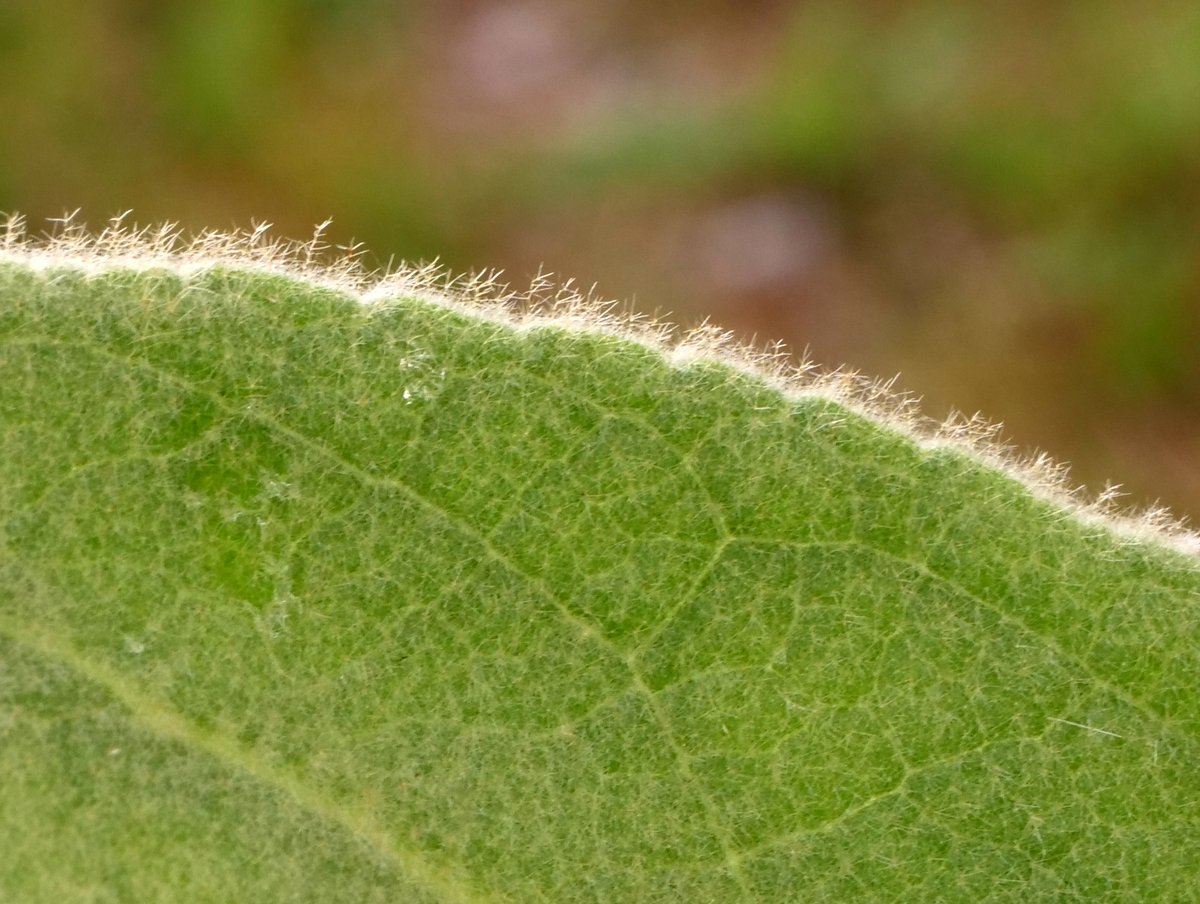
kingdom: Plantae
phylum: Tracheophyta
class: Magnoliopsida
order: Lamiales
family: Scrophulariaceae
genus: Verbascum
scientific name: Verbascum thapsus
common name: Common mullein
